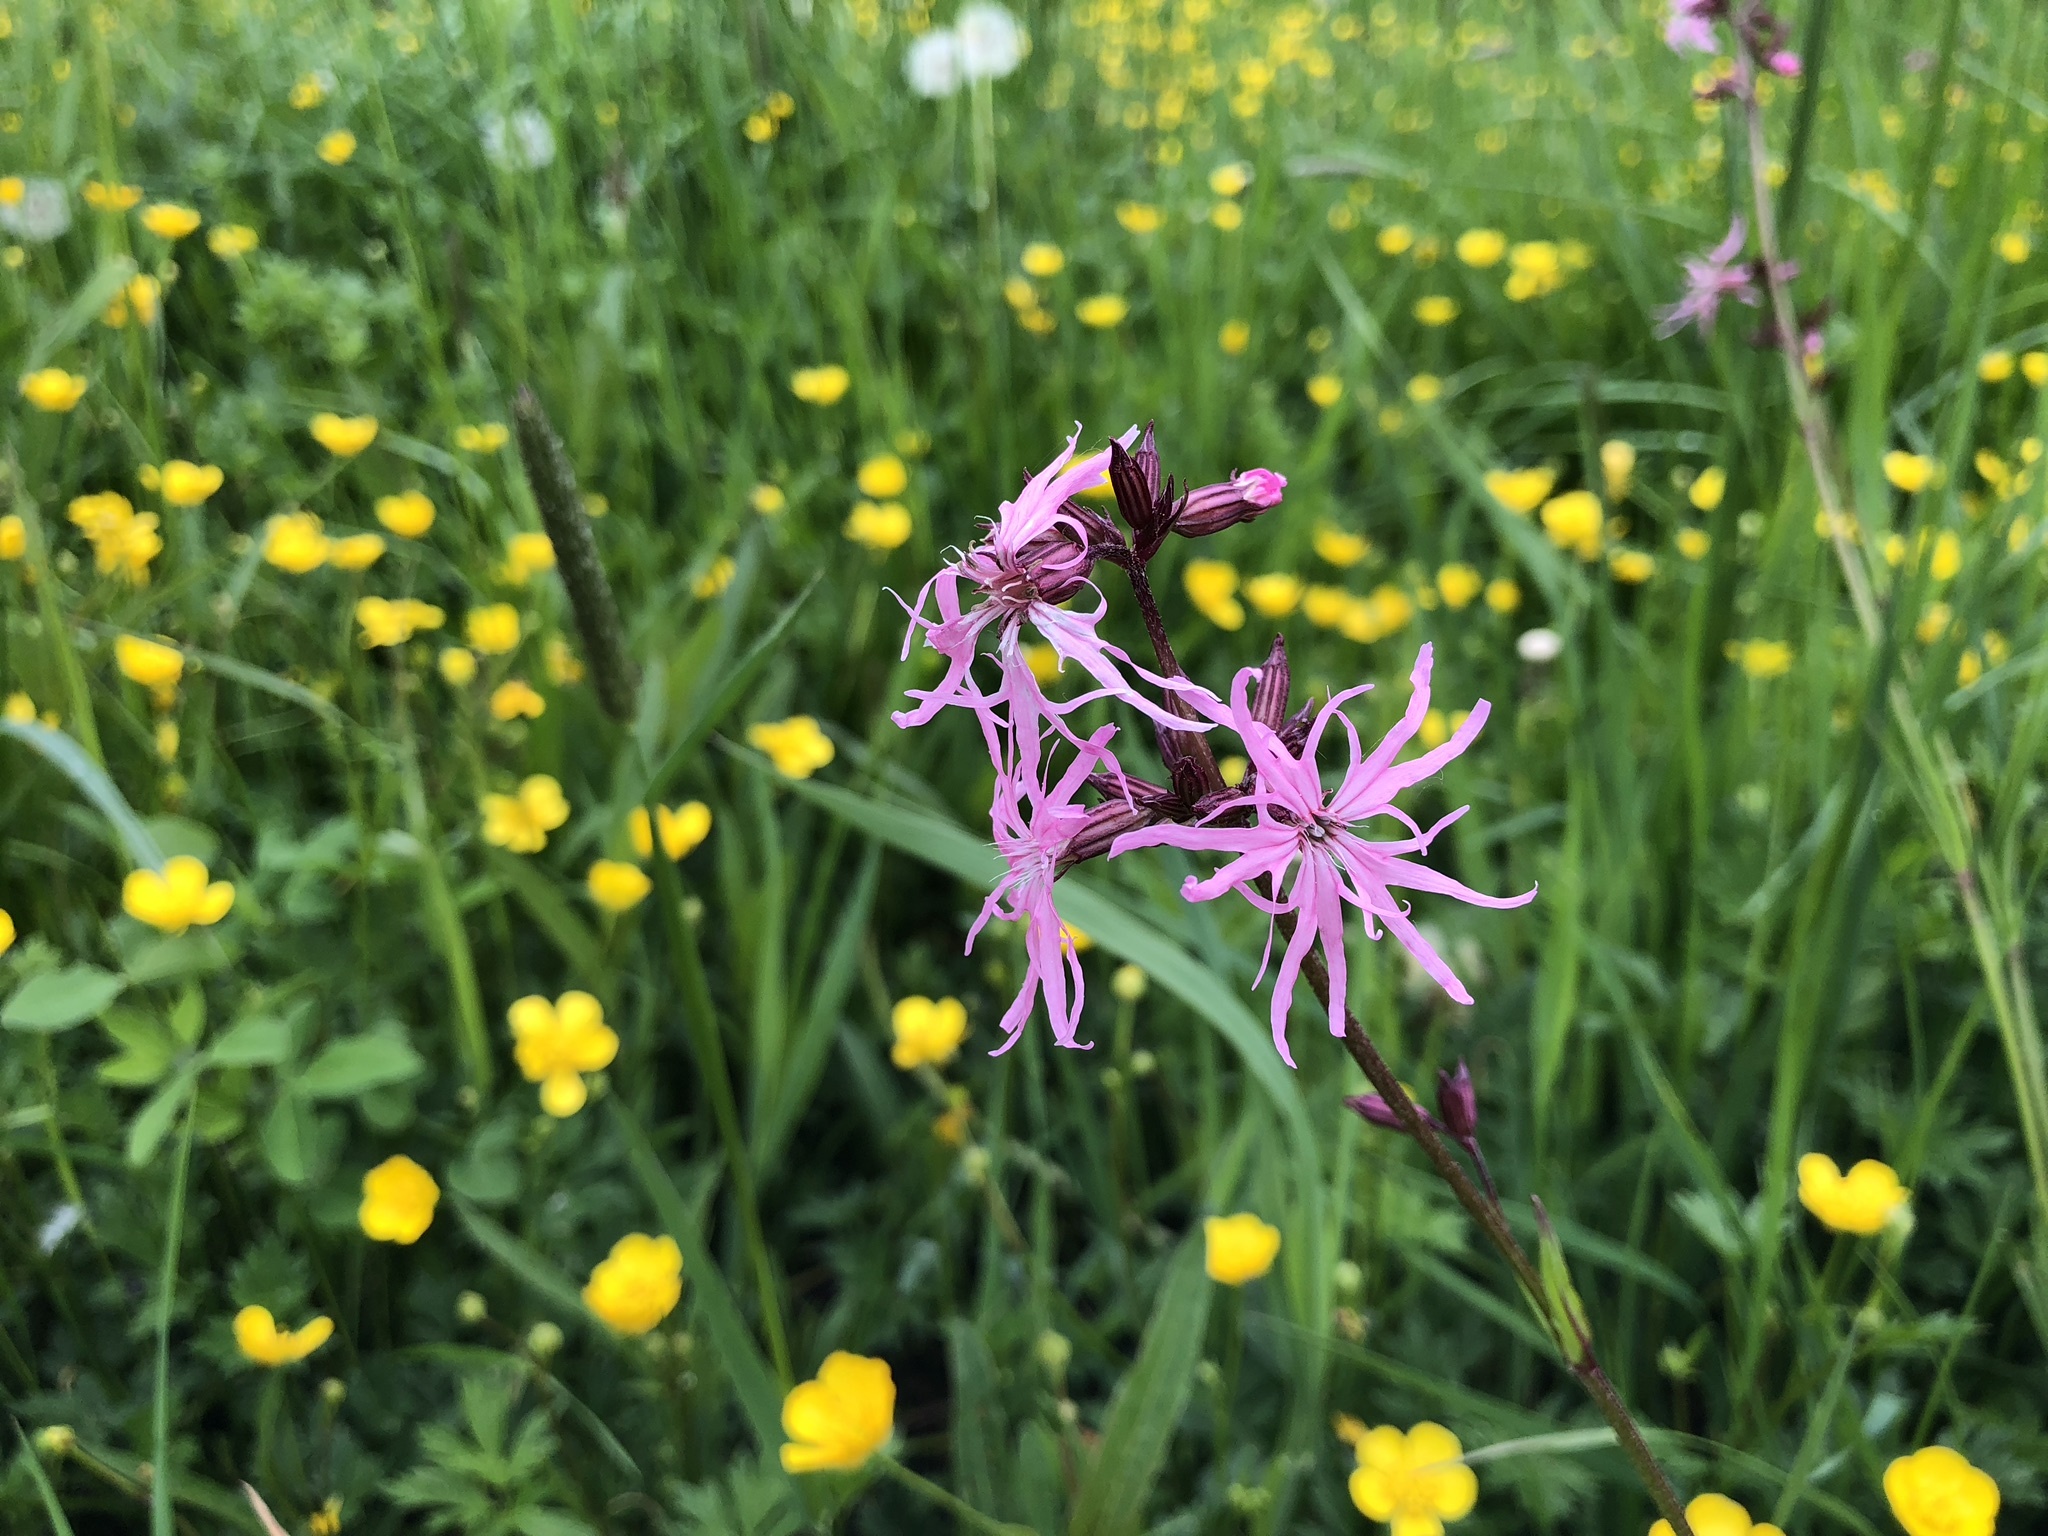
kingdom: Plantae
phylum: Tracheophyta
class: Magnoliopsida
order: Caryophyllales
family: Caryophyllaceae
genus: Silene
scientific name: Silene flos-cuculi
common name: Ragged-robin
